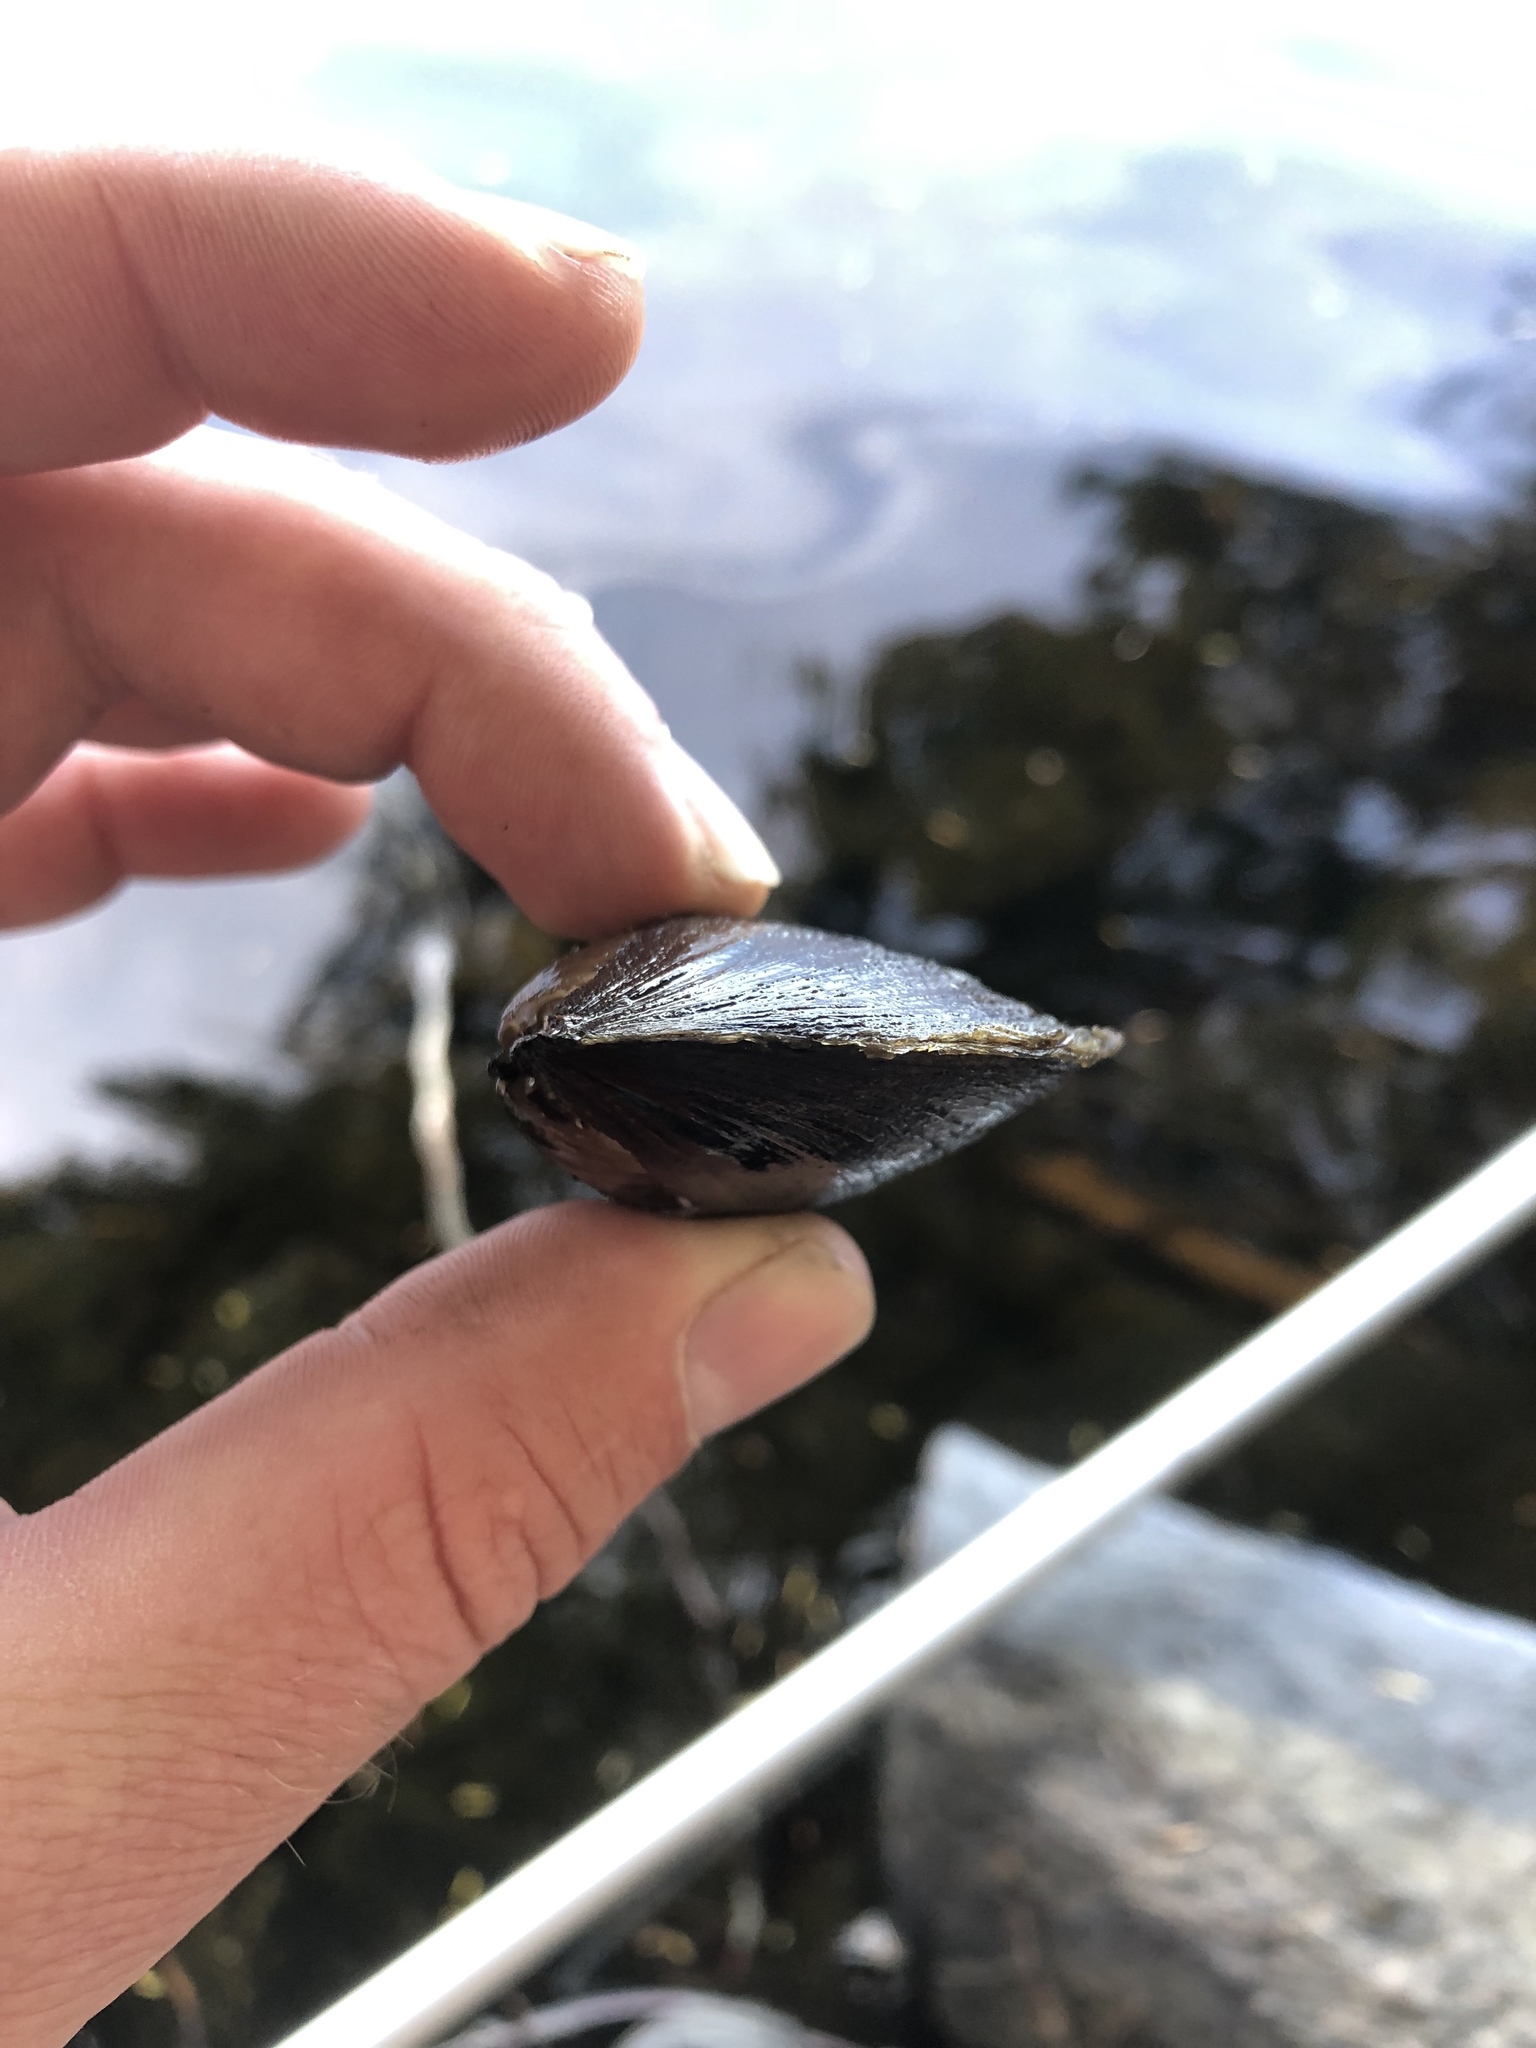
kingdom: Animalia
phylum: Mollusca
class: Bivalvia
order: Unionida
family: Unionidae
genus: Elliptio
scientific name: Elliptio complanata
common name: Eastern elliptio
